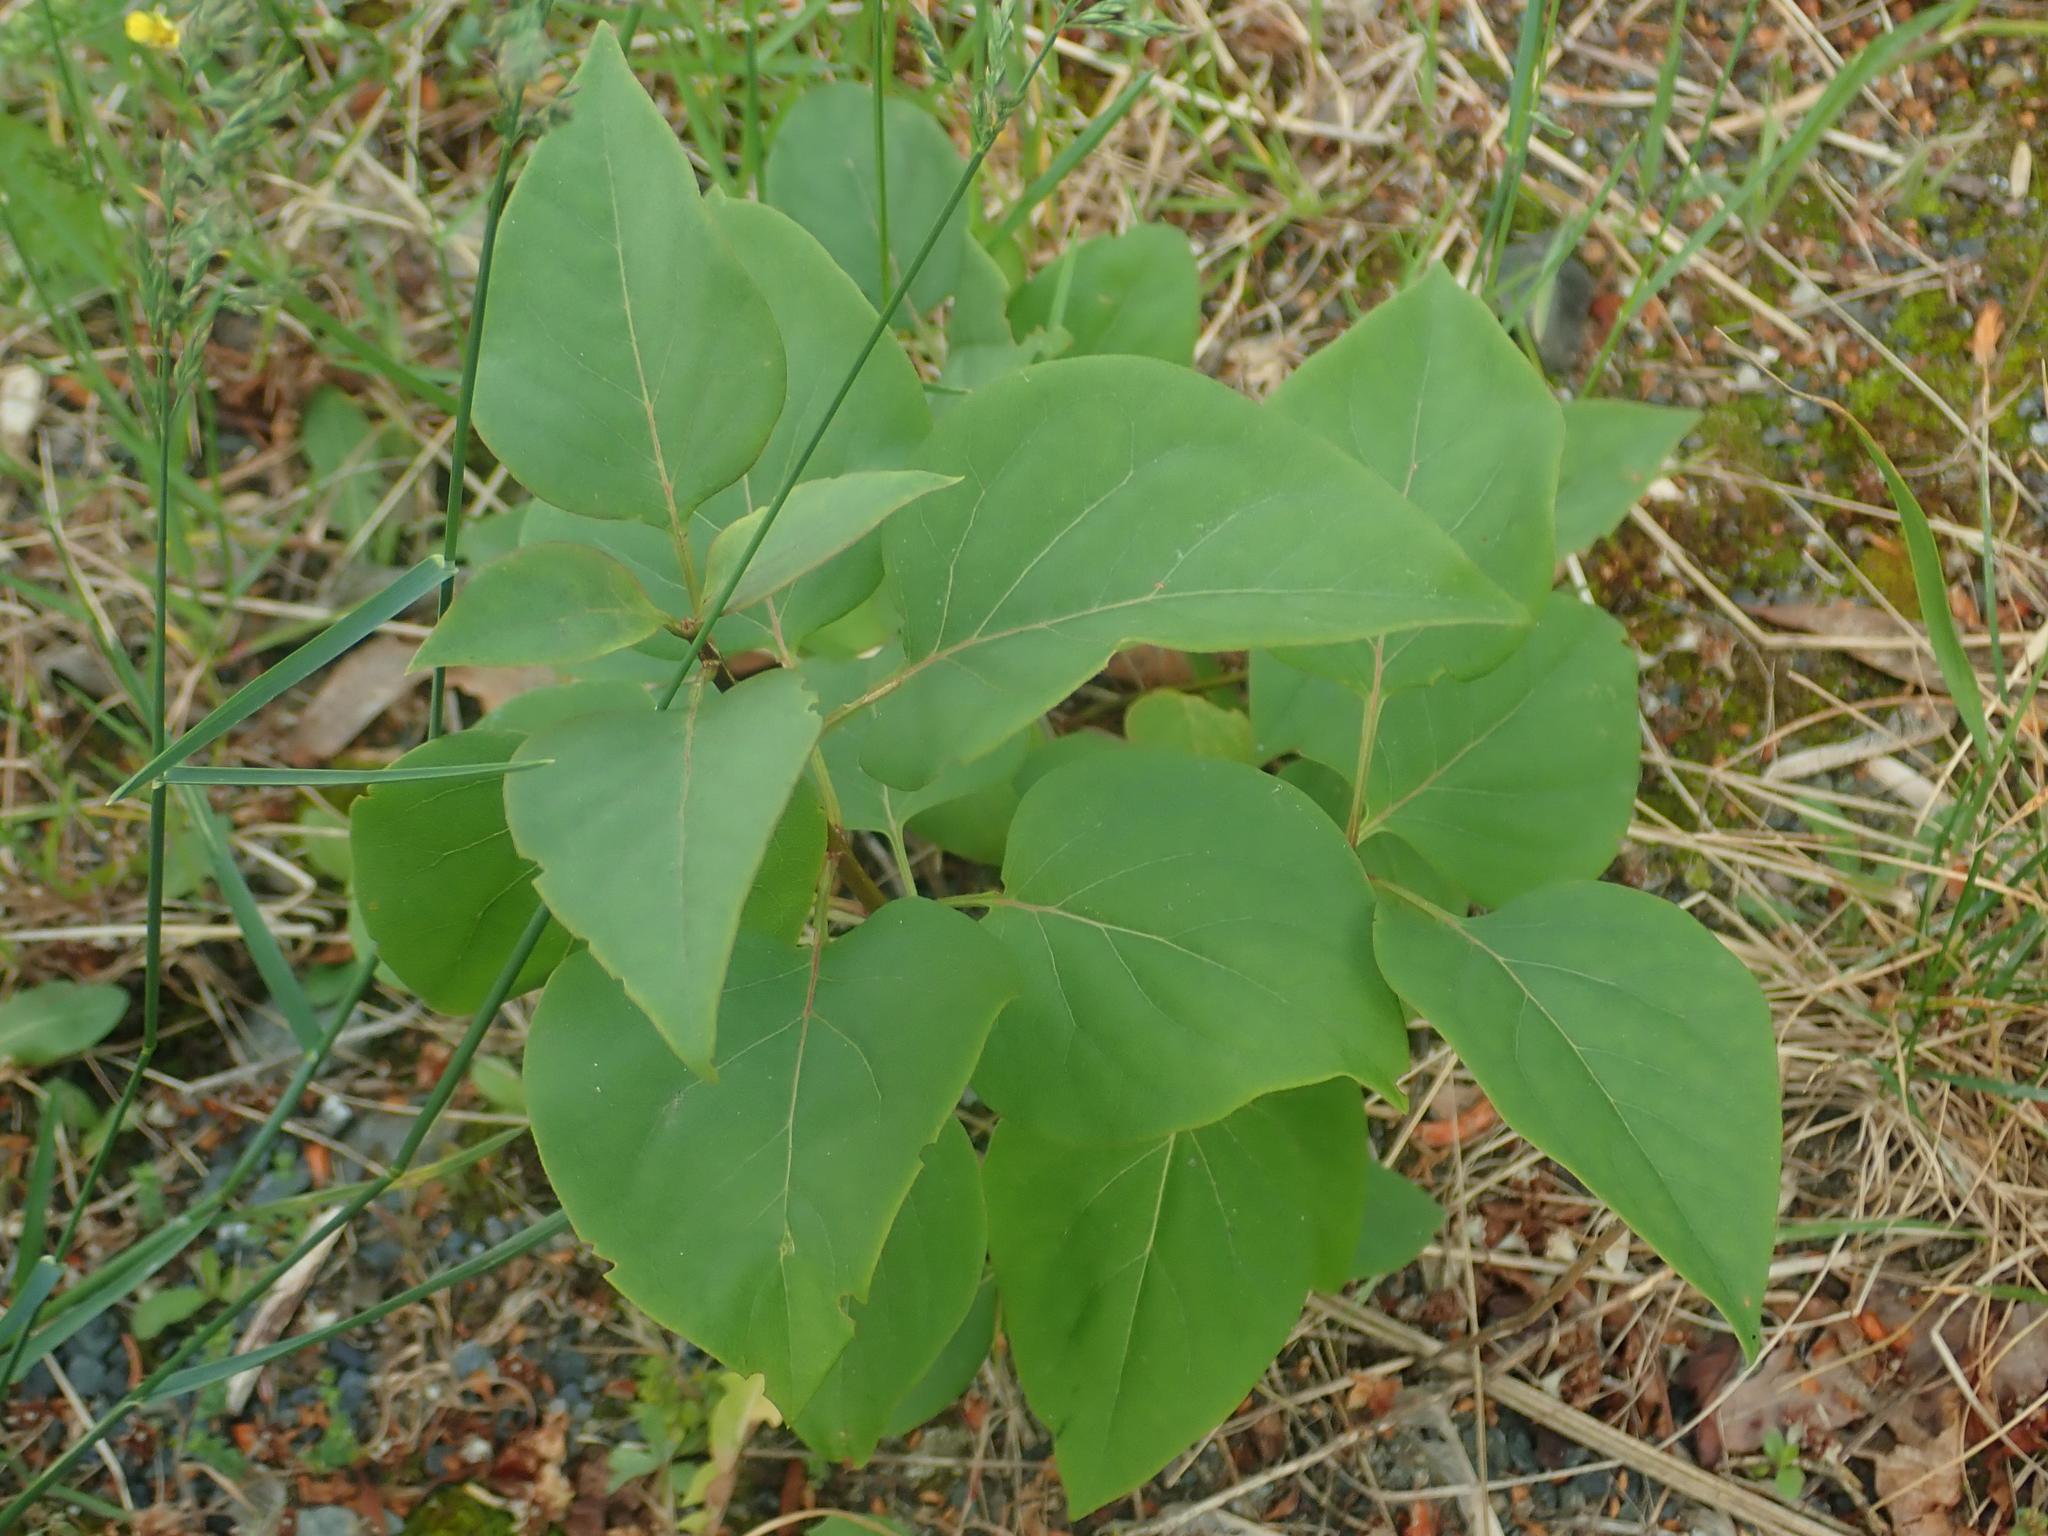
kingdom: Plantae
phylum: Tracheophyta
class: Magnoliopsida
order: Lamiales
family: Oleaceae
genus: Syringa
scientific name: Syringa vulgaris
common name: Common lilac
